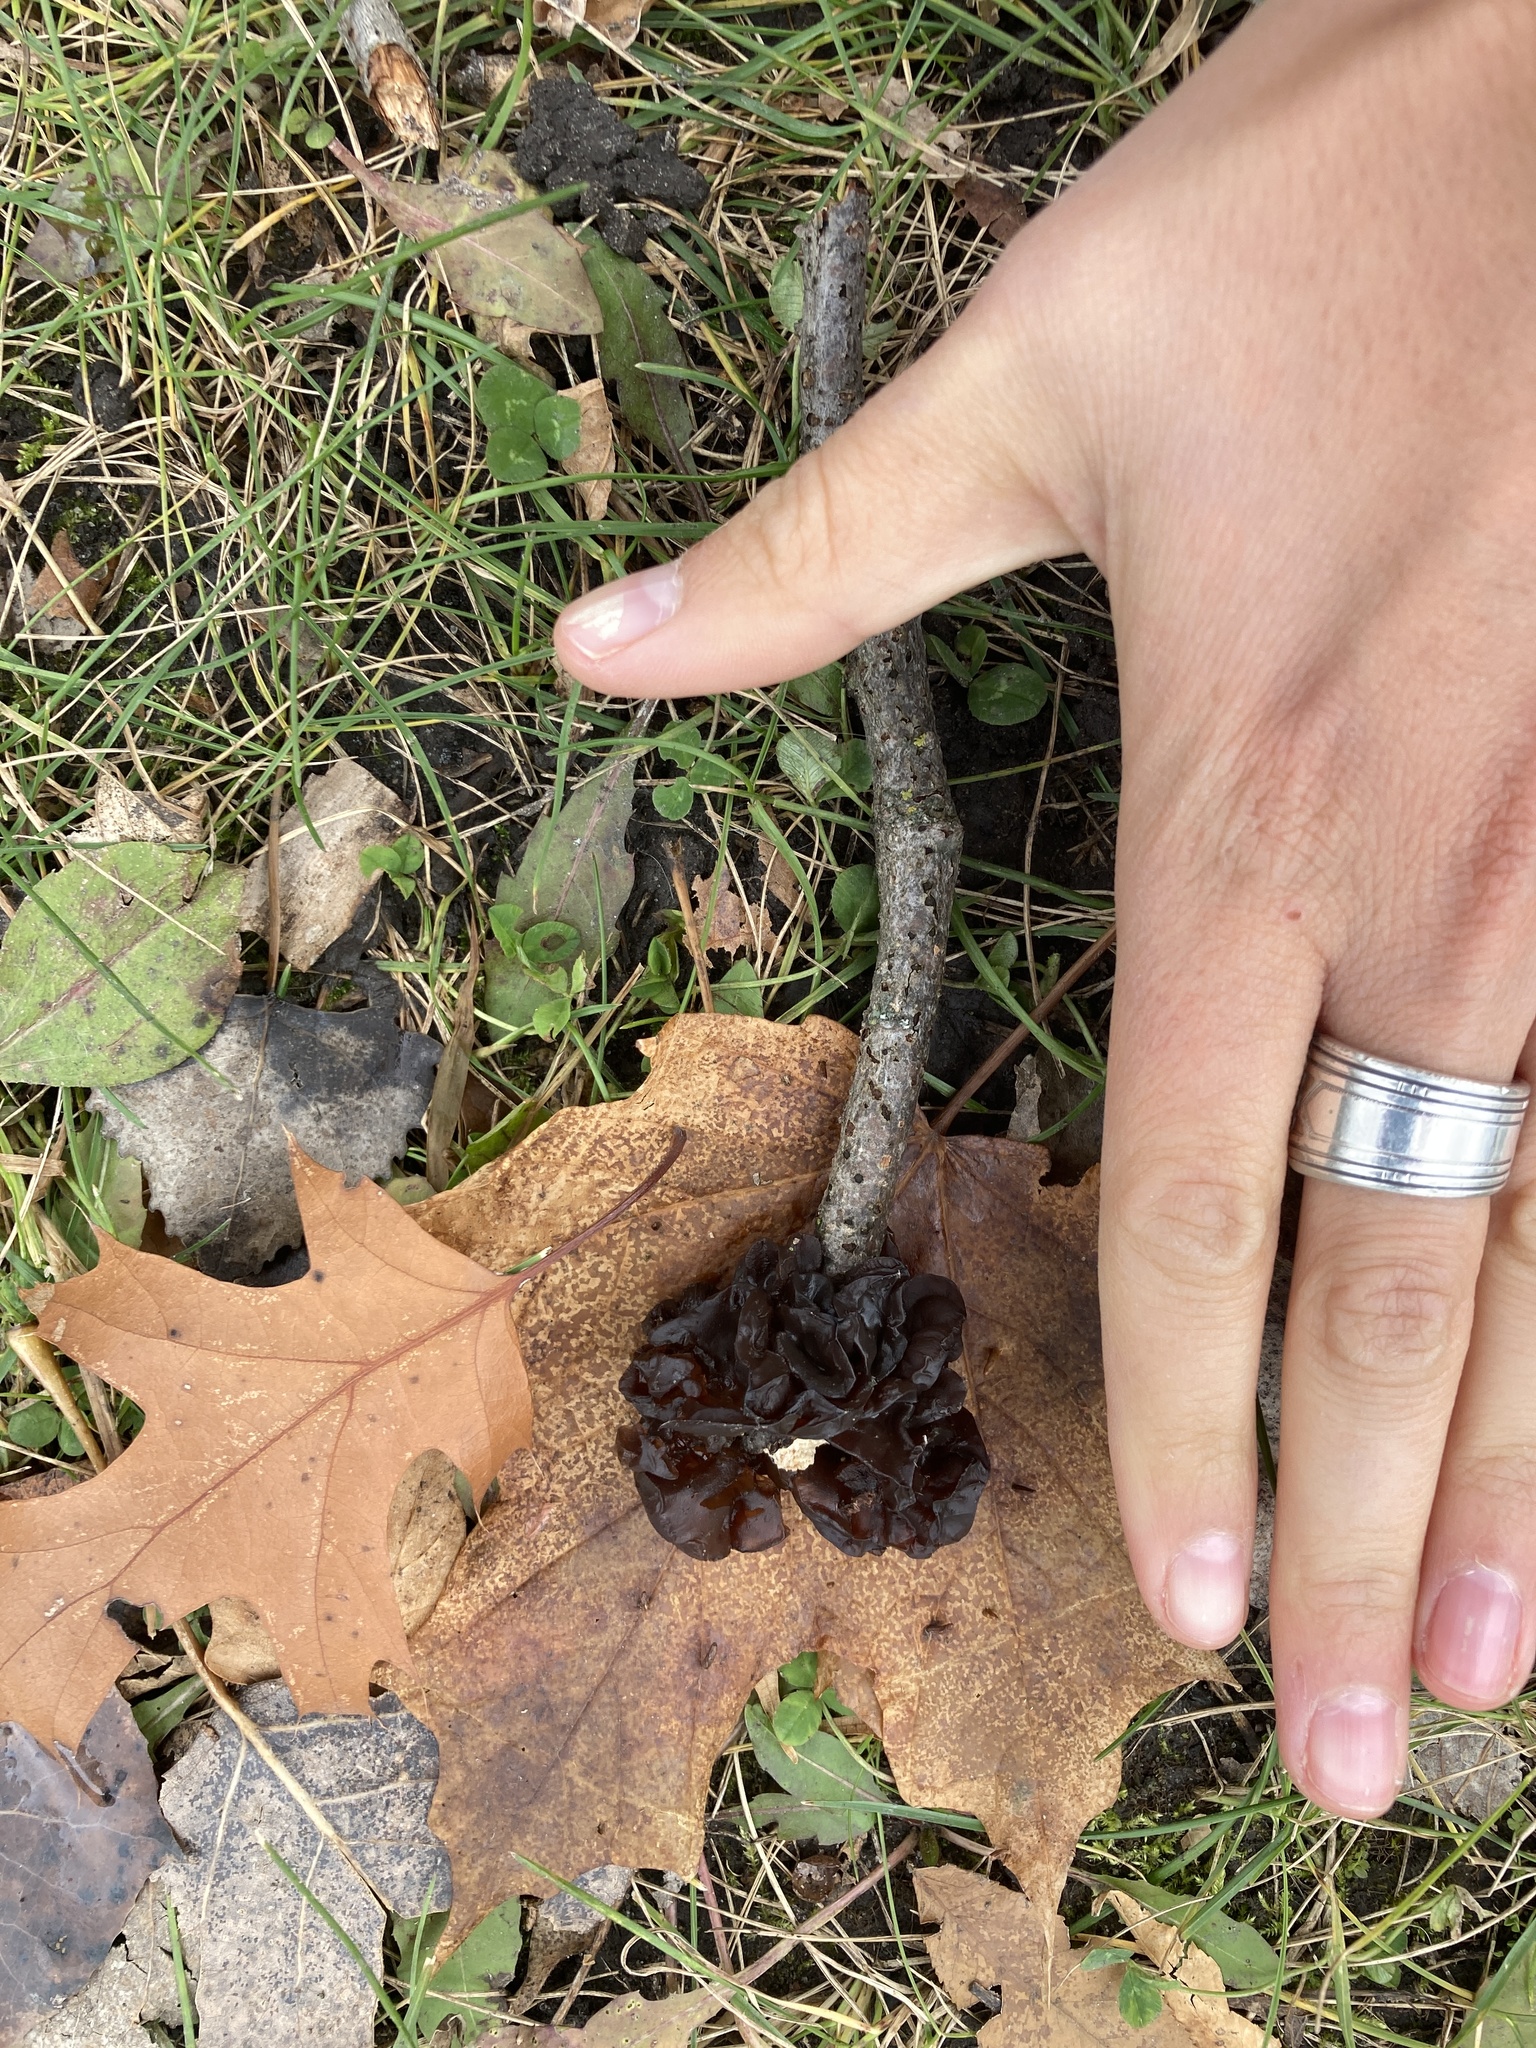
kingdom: Fungi
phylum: Basidiomycota
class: Agaricomycetes
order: Auriculariales
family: Auriculariaceae
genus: Exidia
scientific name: Exidia
